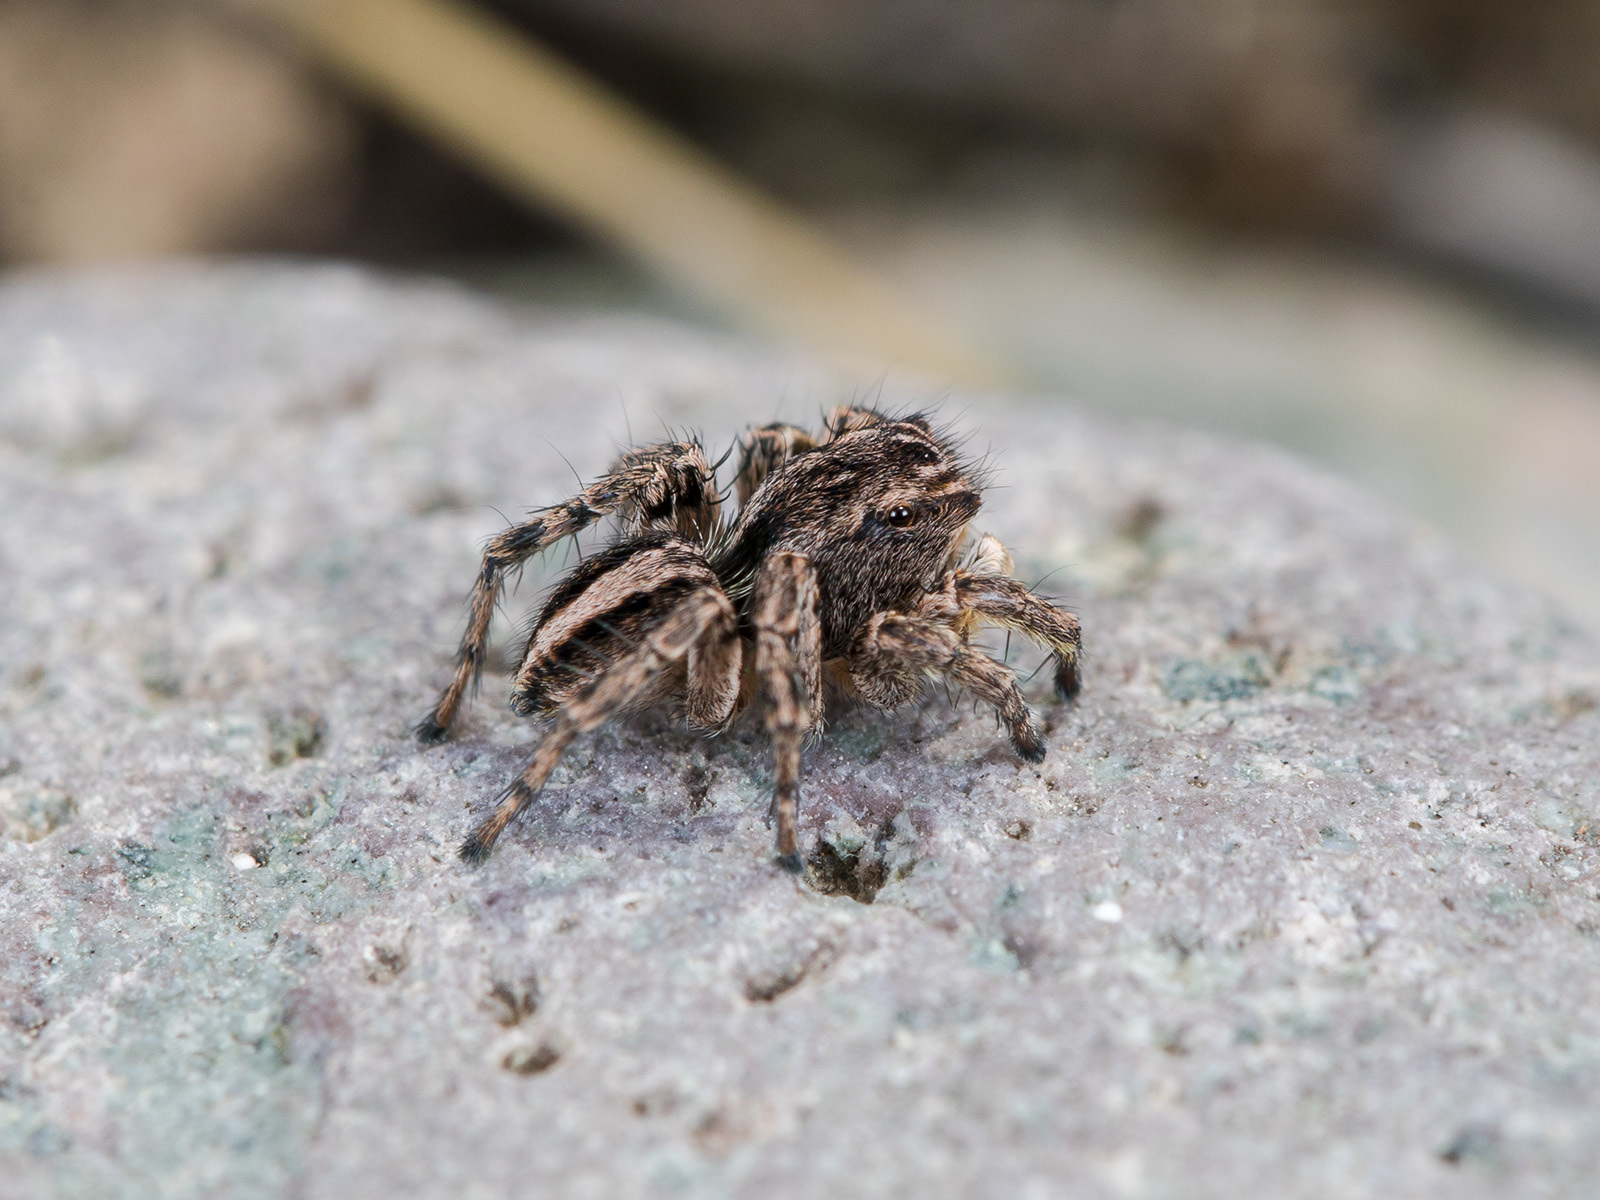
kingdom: Animalia
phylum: Arthropoda
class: Arachnida
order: Araneae
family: Salticidae
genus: Aelurillus
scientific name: Aelurillus v-insignitus
